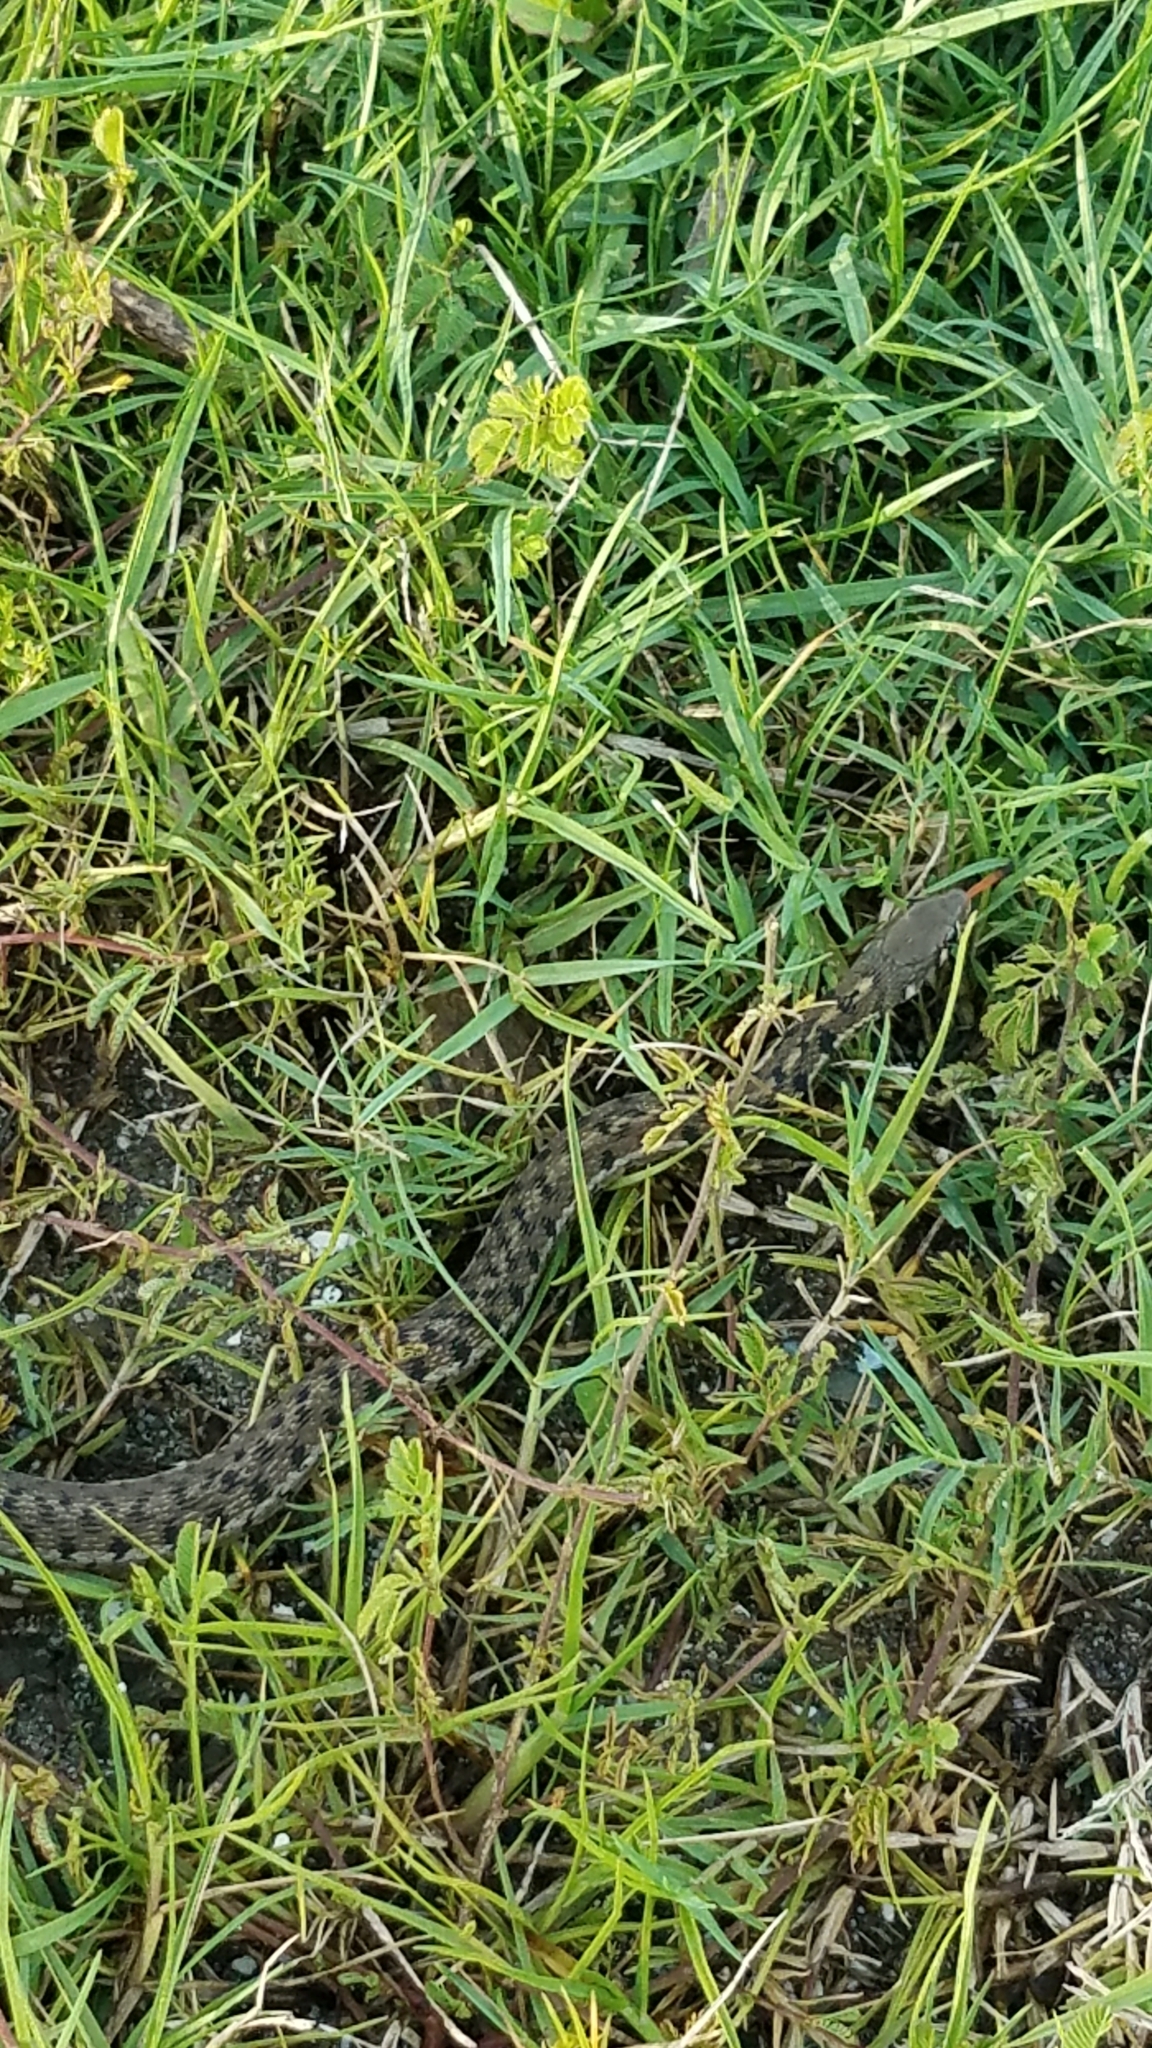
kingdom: Animalia
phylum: Chordata
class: Squamata
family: Colubridae
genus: Thamnophis
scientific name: Thamnophis marcianus
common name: Checkered garter snake
